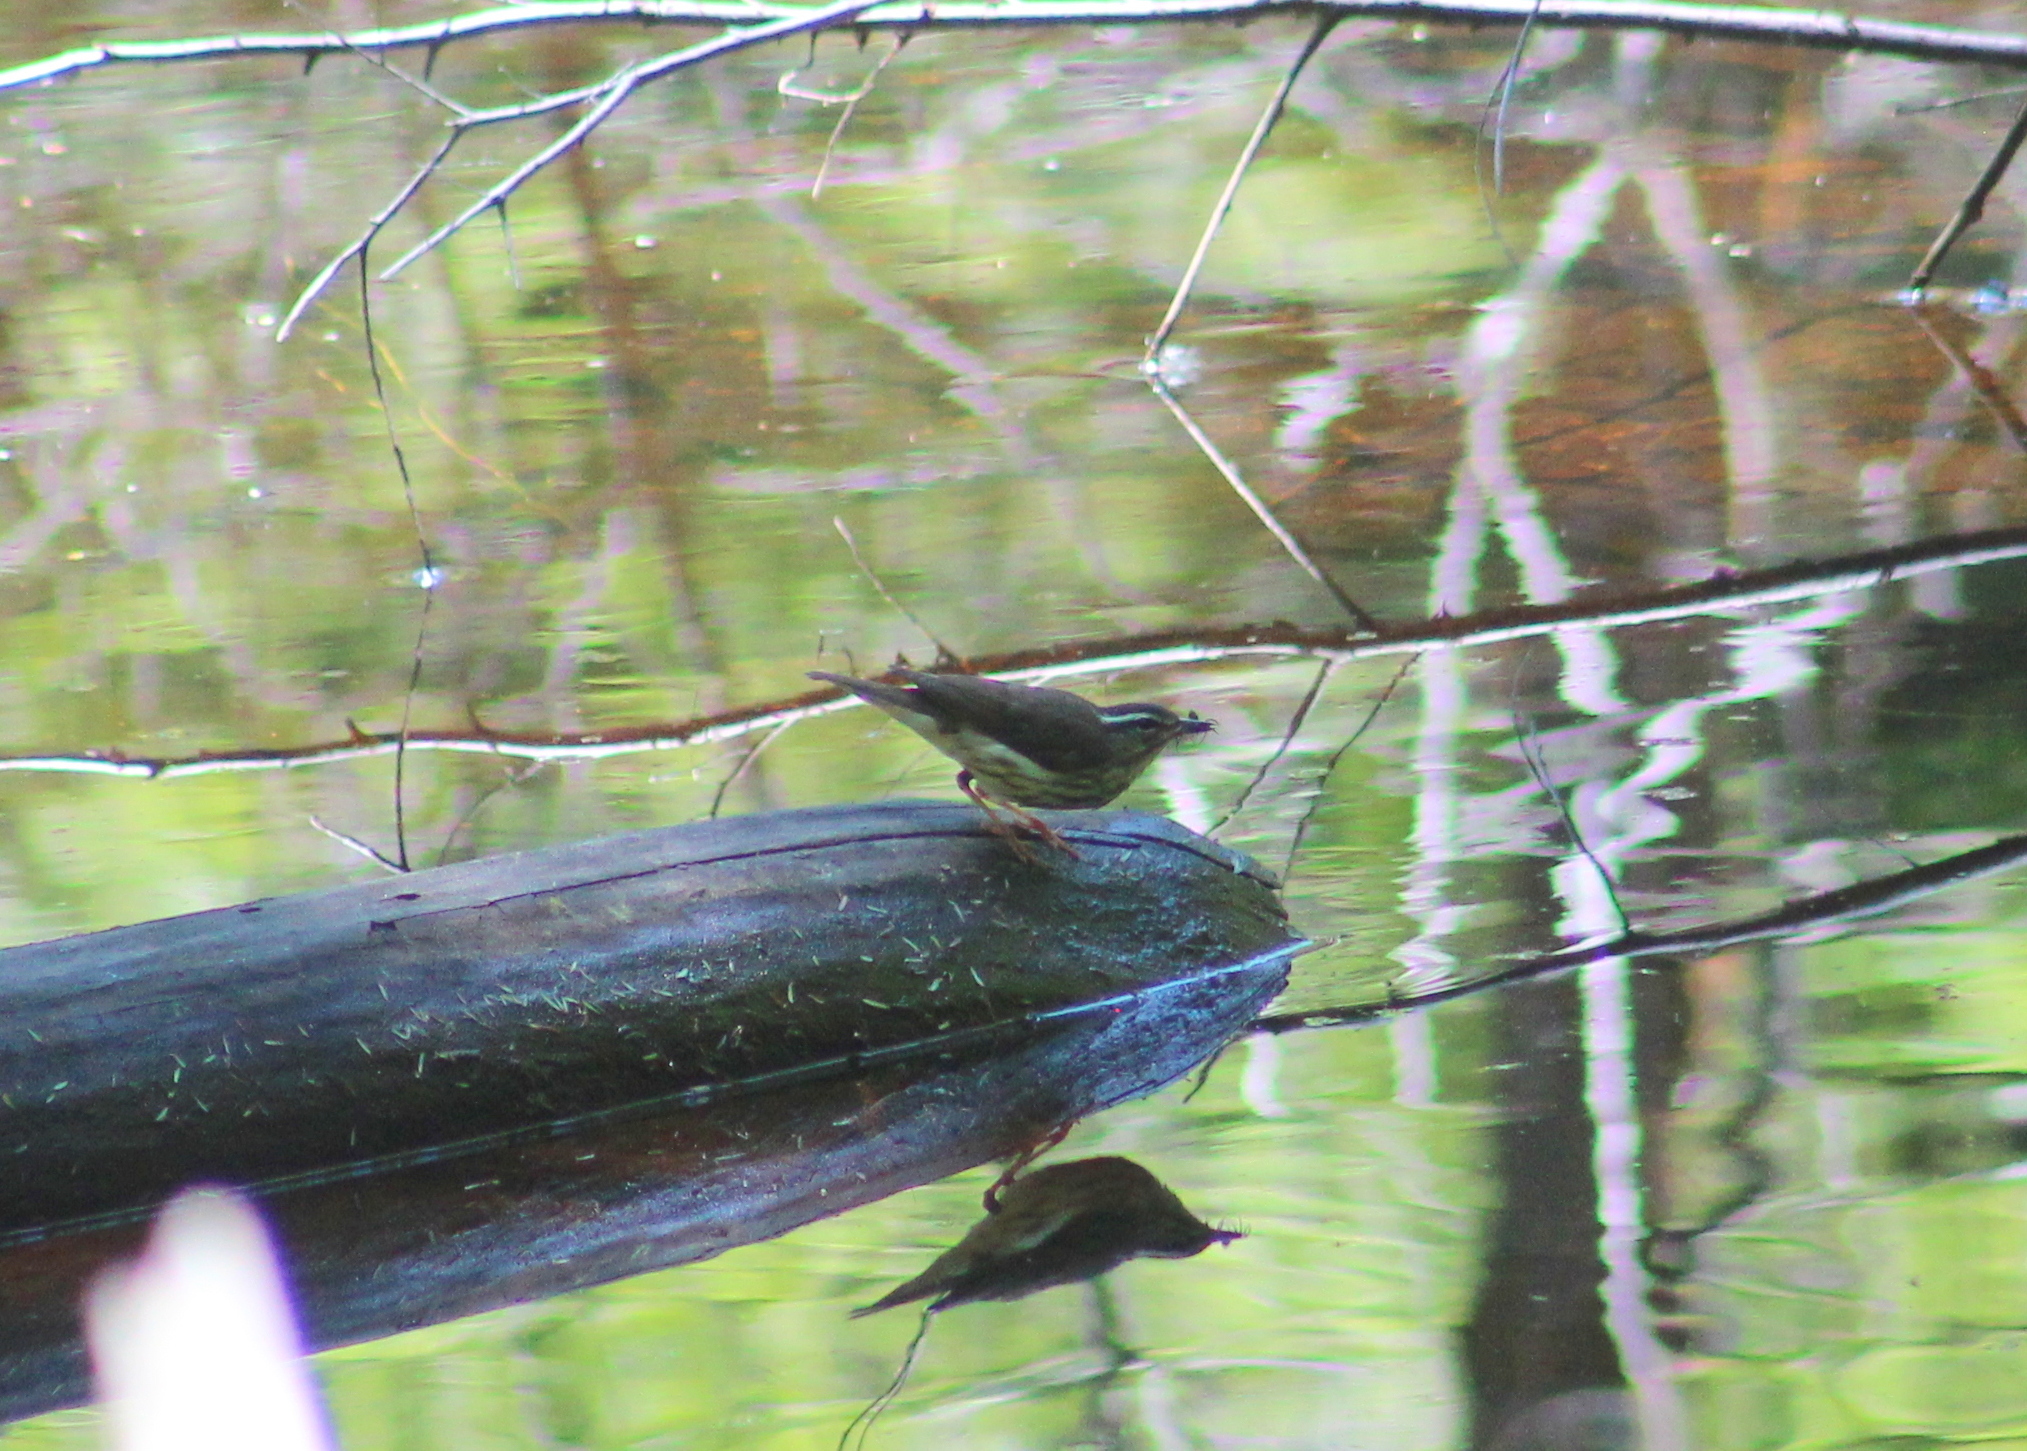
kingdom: Animalia
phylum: Chordata
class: Aves
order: Passeriformes
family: Parulidae
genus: Parkesia
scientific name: Parkesia motacilla
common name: Louisiana waterthrush
